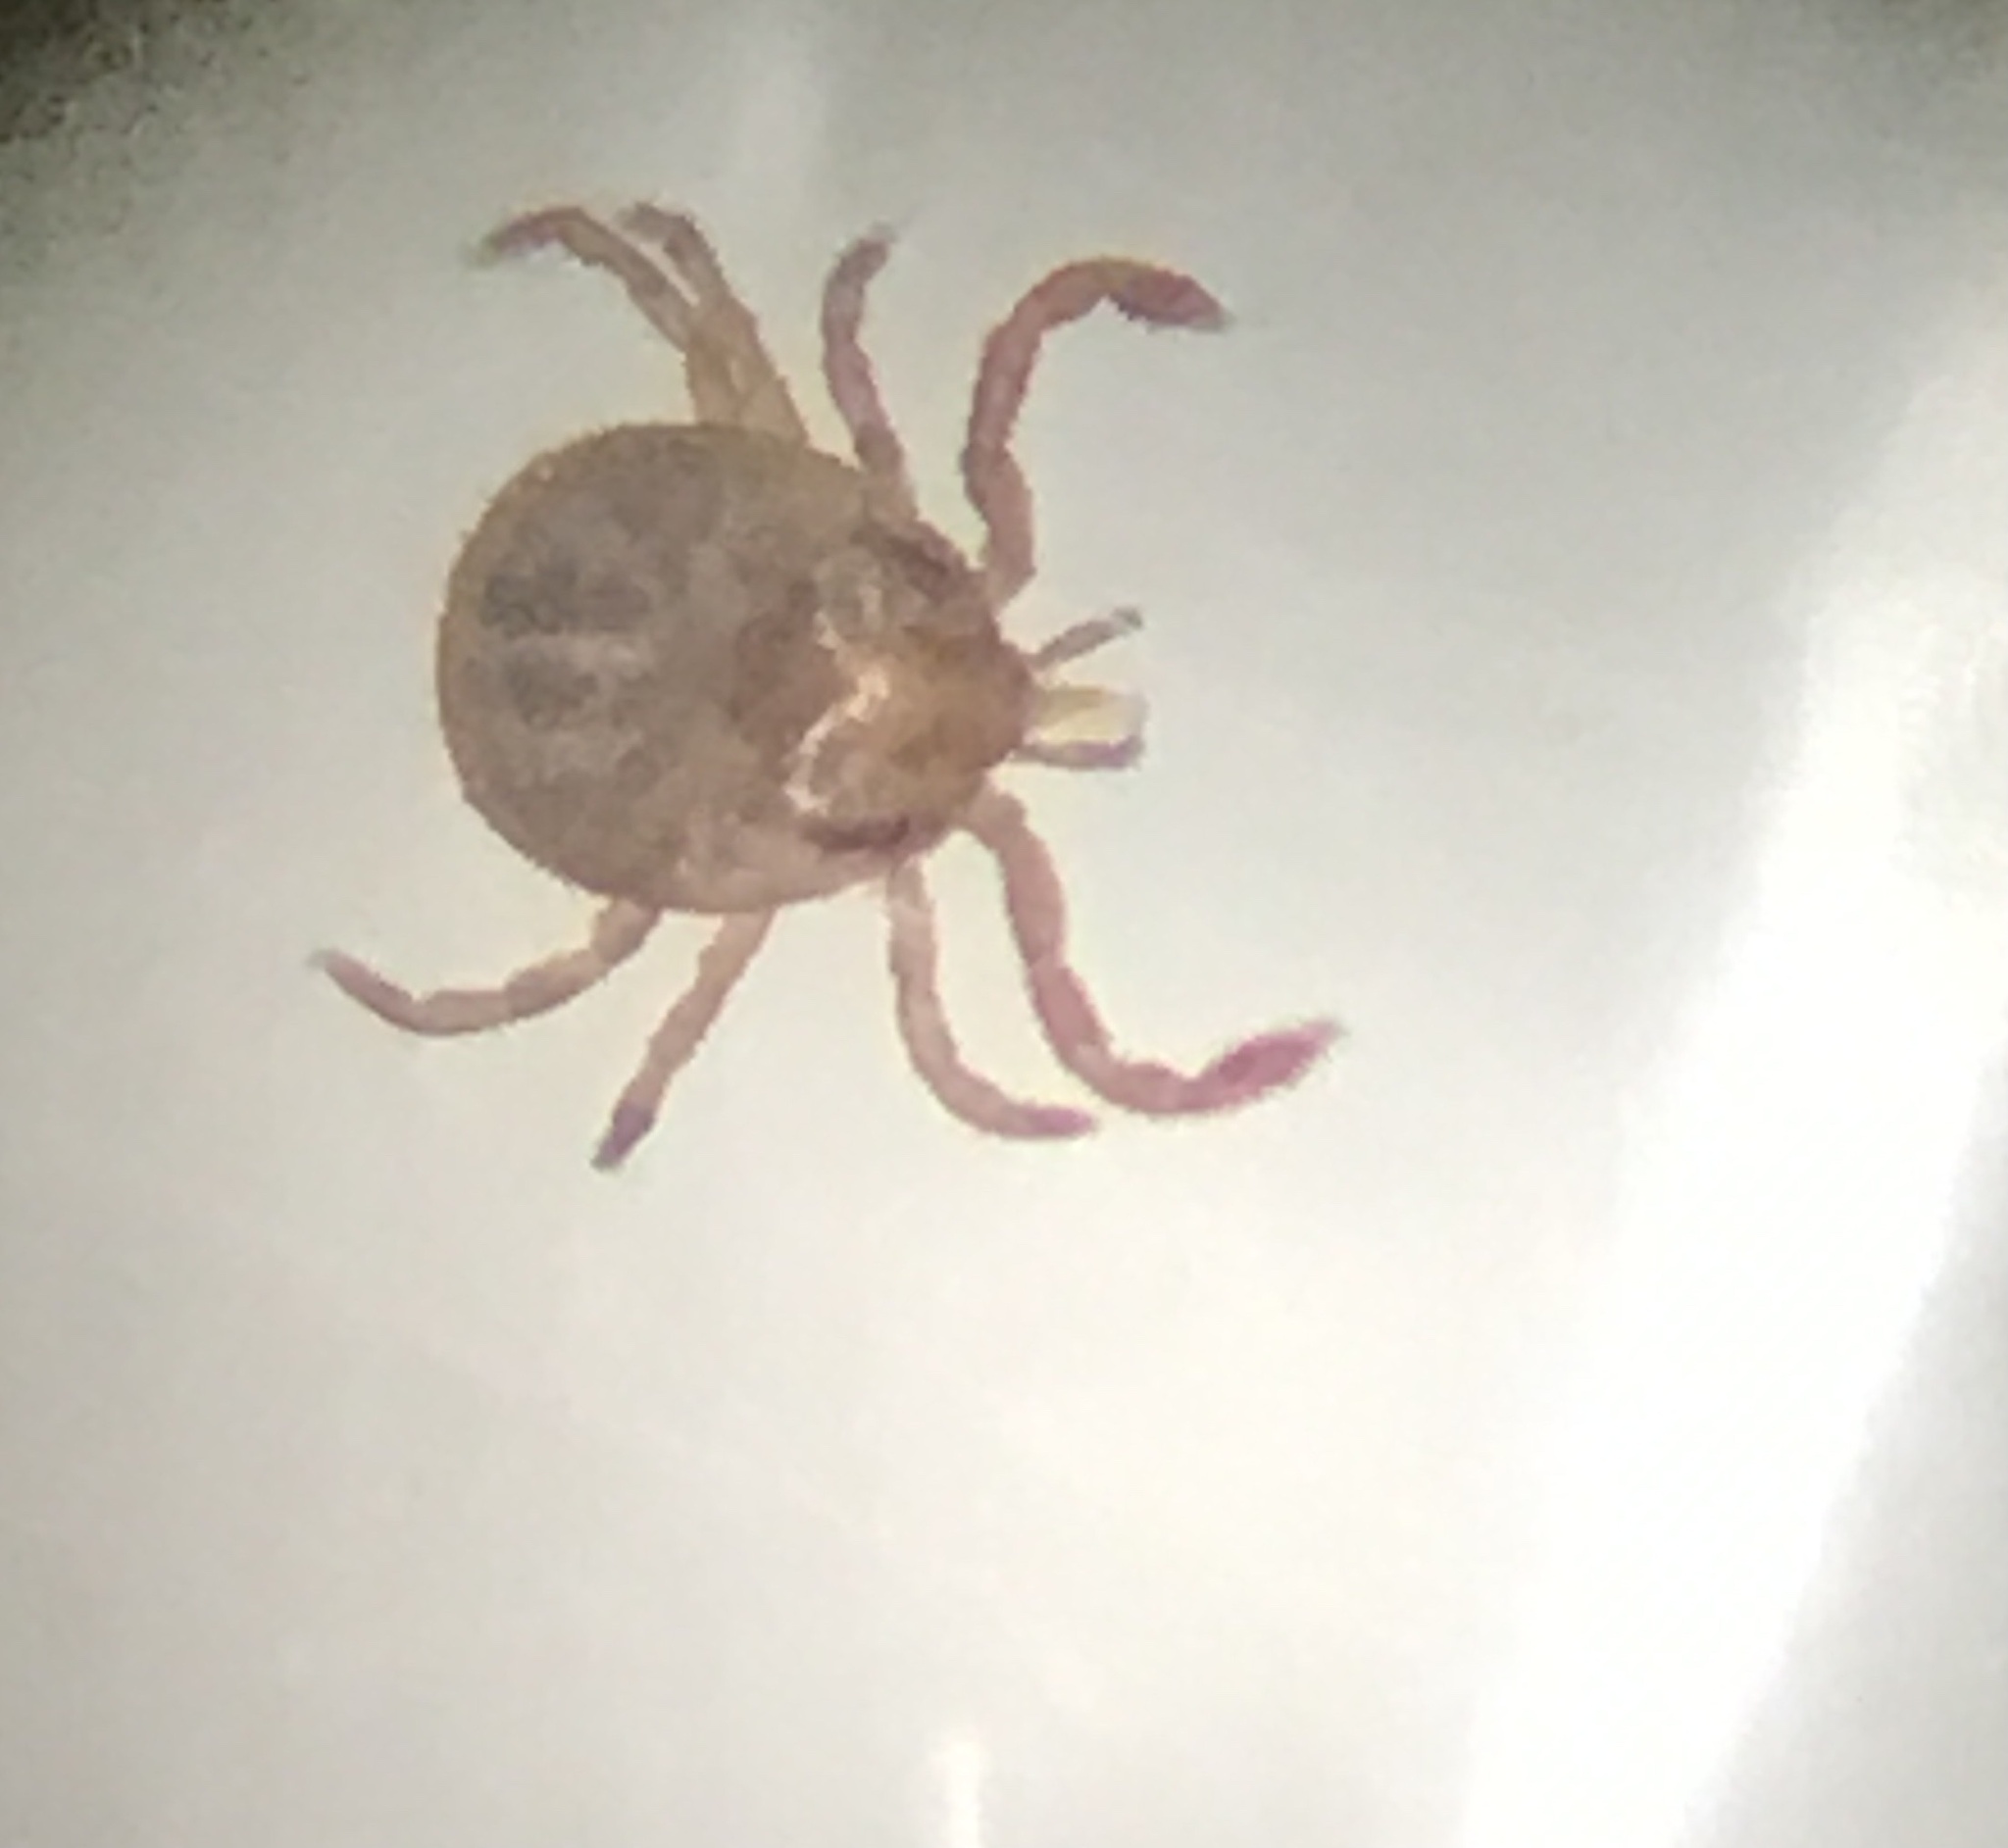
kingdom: Animalia
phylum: Arthropoda
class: Arachnida
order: Ixodida
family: Ixodidae
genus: Amblyomma
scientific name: Amblyomma americanum
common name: Lone star tick
